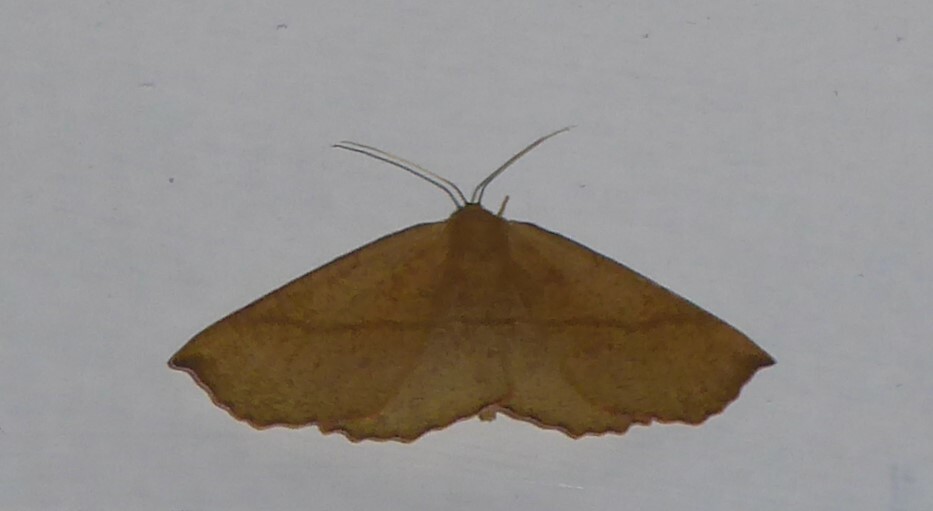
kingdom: Animalia
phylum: Arthropoda
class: Insecta
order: Lepidoptera
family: Geometridae
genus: Xyridacma
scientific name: Xyridacma alectoraria
